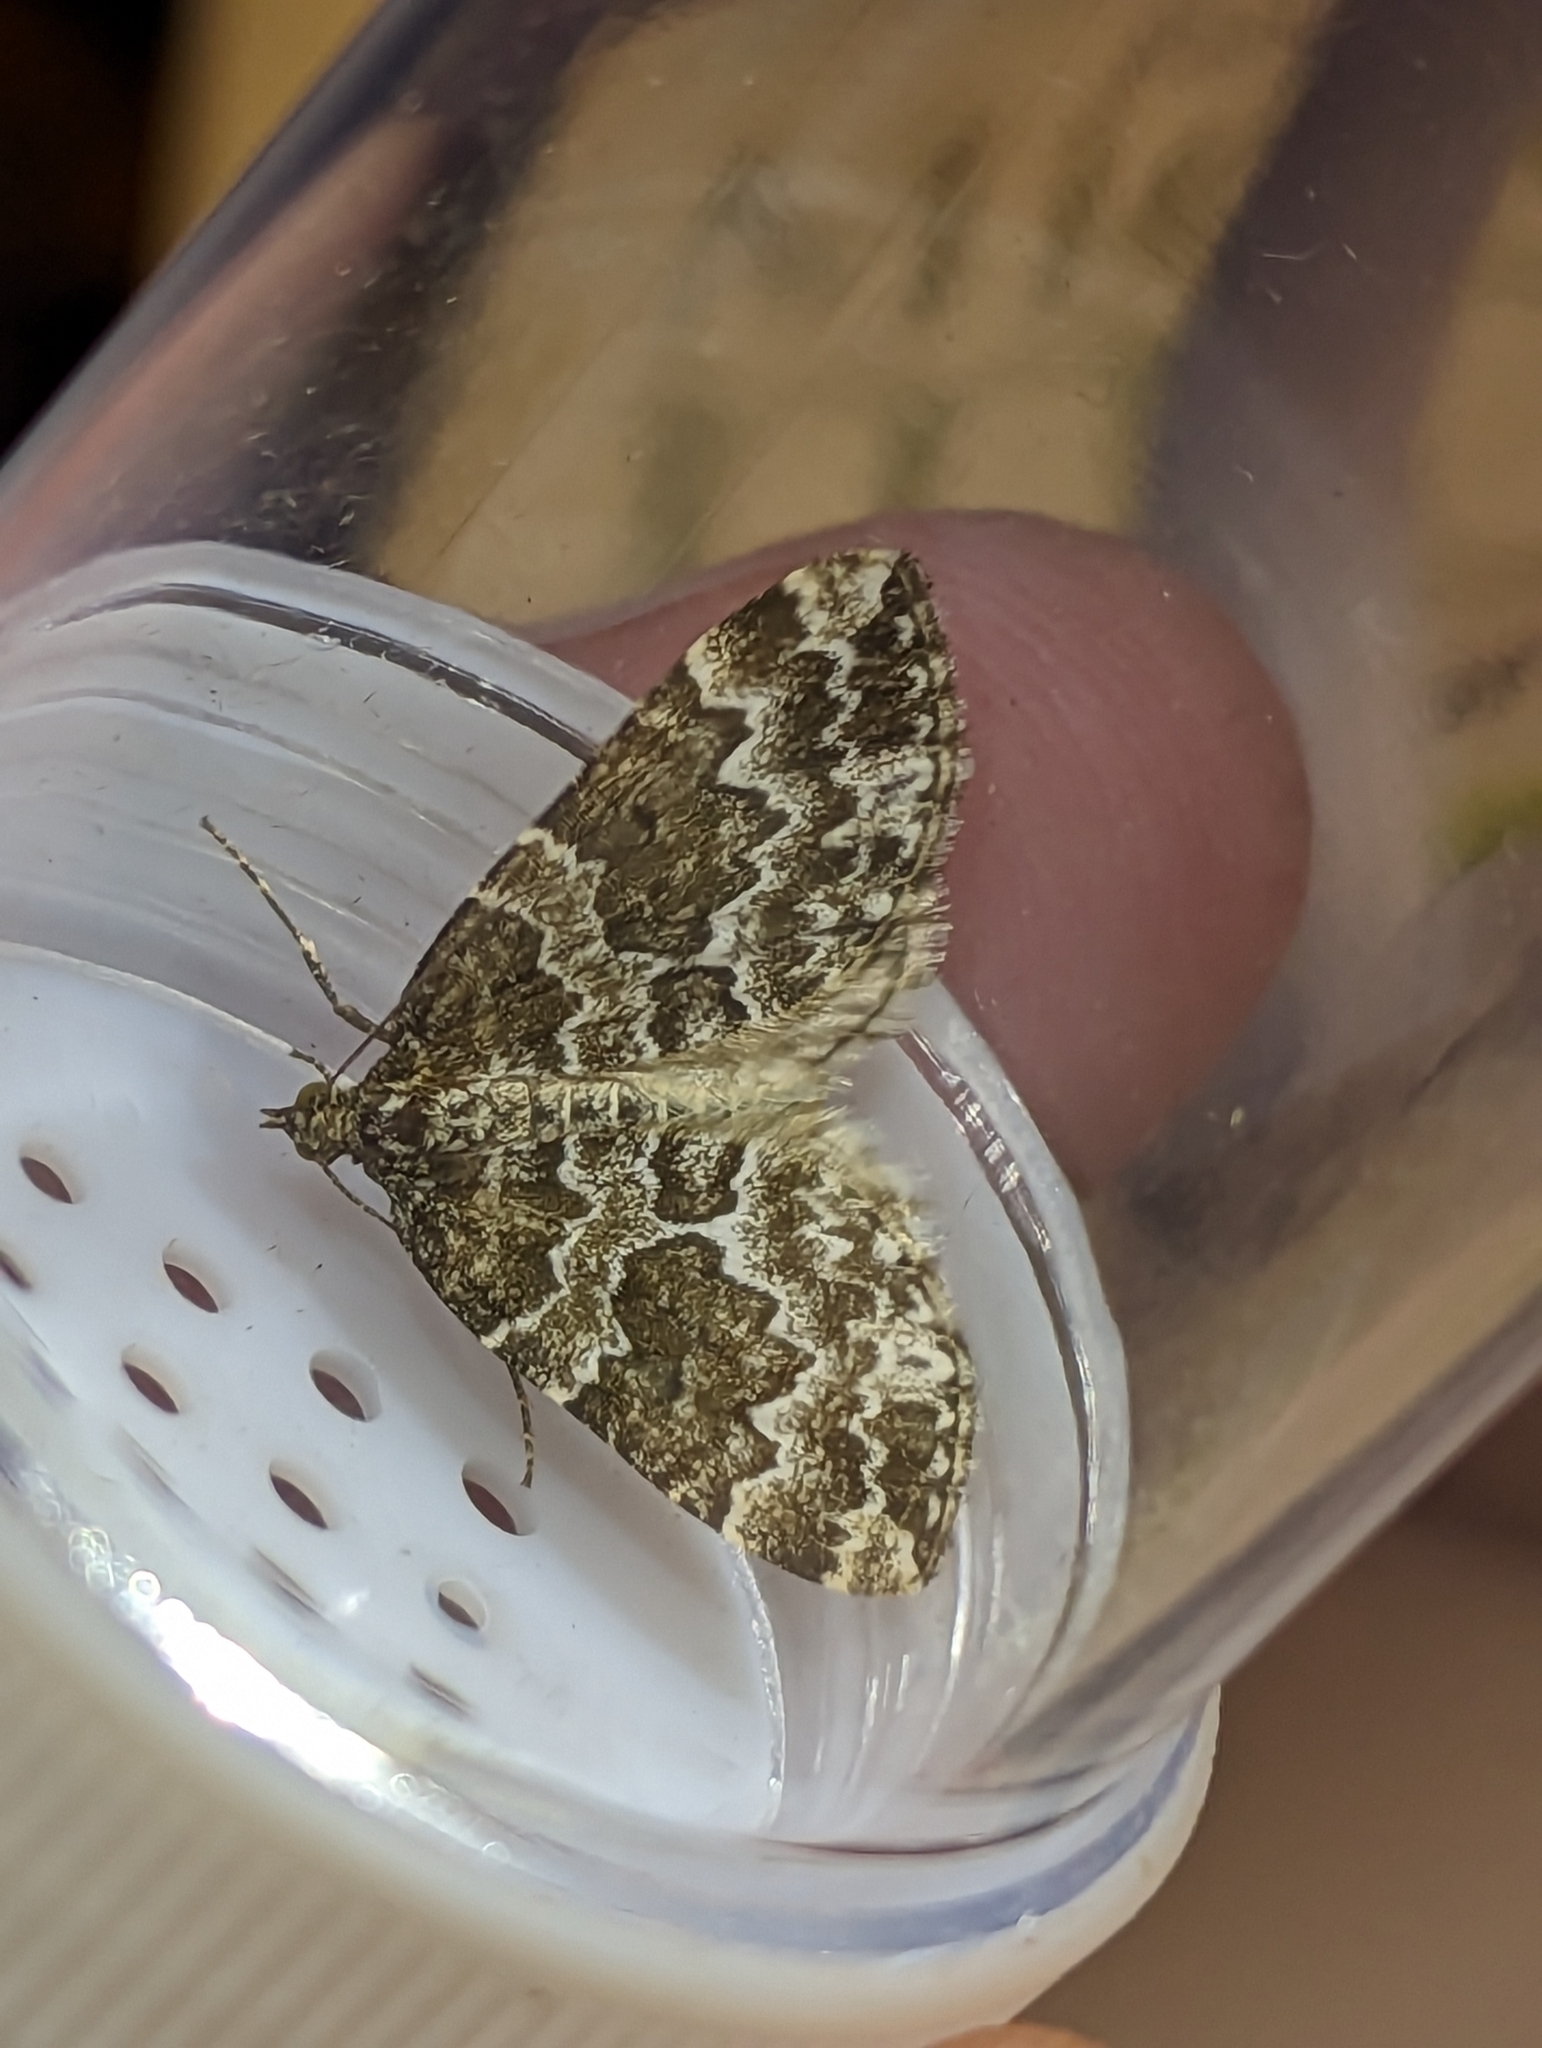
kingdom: Animalia
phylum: Arthropoda
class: Insecta
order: Lepidoptera
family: Geometridae
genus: Electrophaes
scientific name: Electrophaes corylata
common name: Broken-barred carpet
